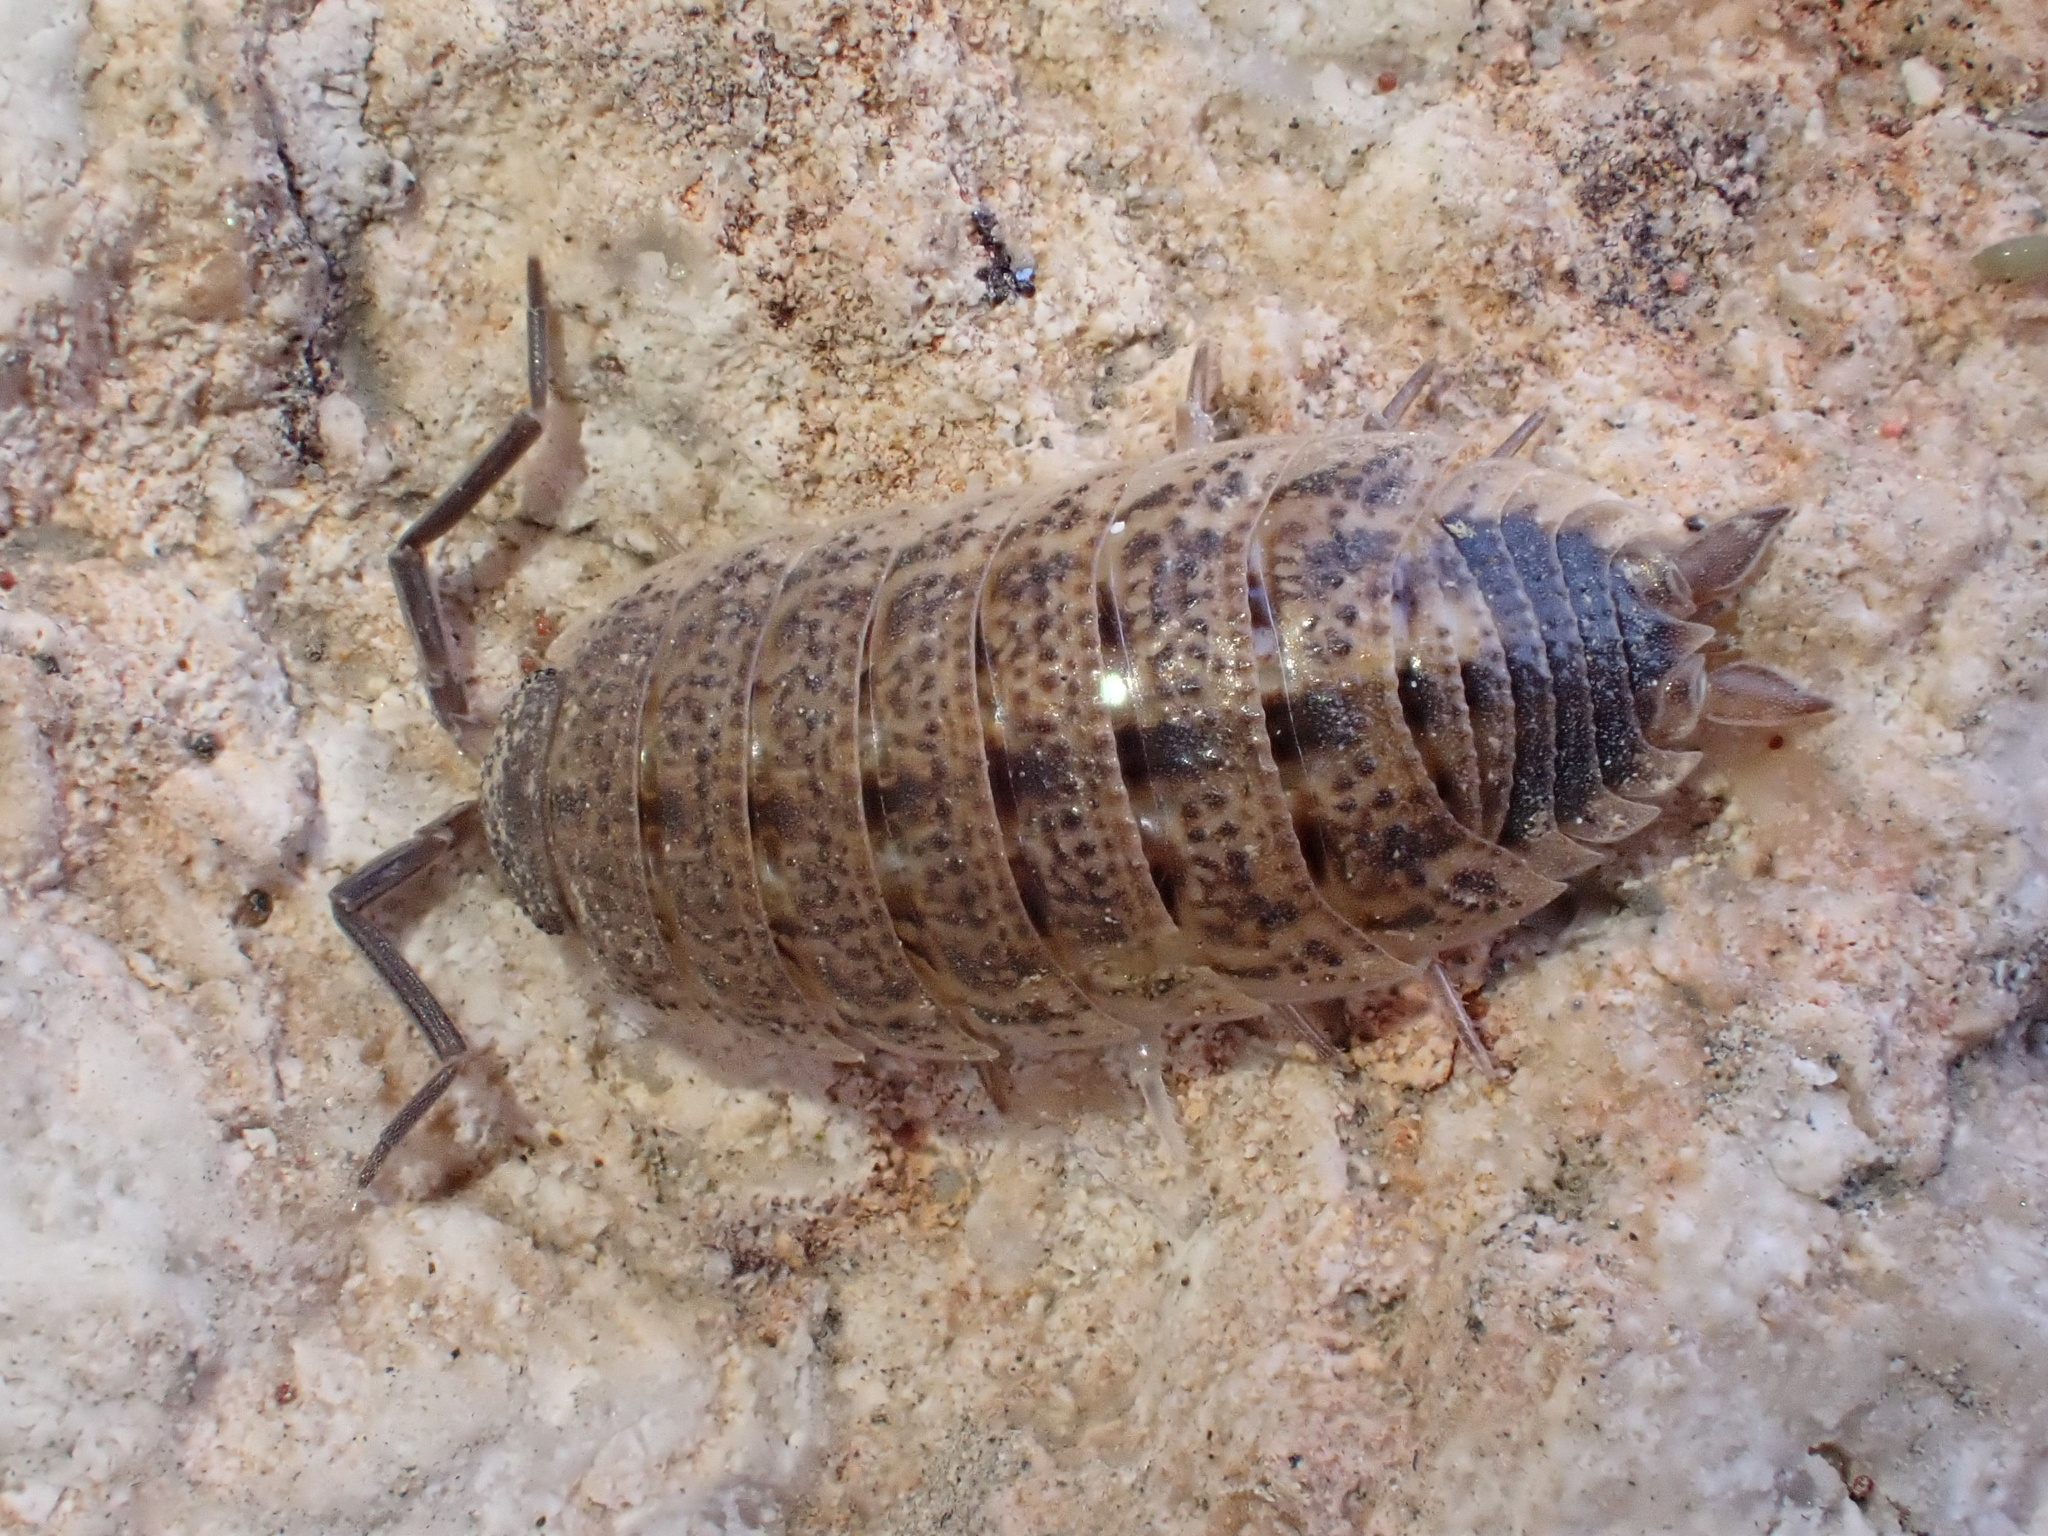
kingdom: Animalia
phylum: Arthropoda
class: Malacostraca
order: Isopoda
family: Porcellionidae
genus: Porcellio
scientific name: Porcellio evansi
